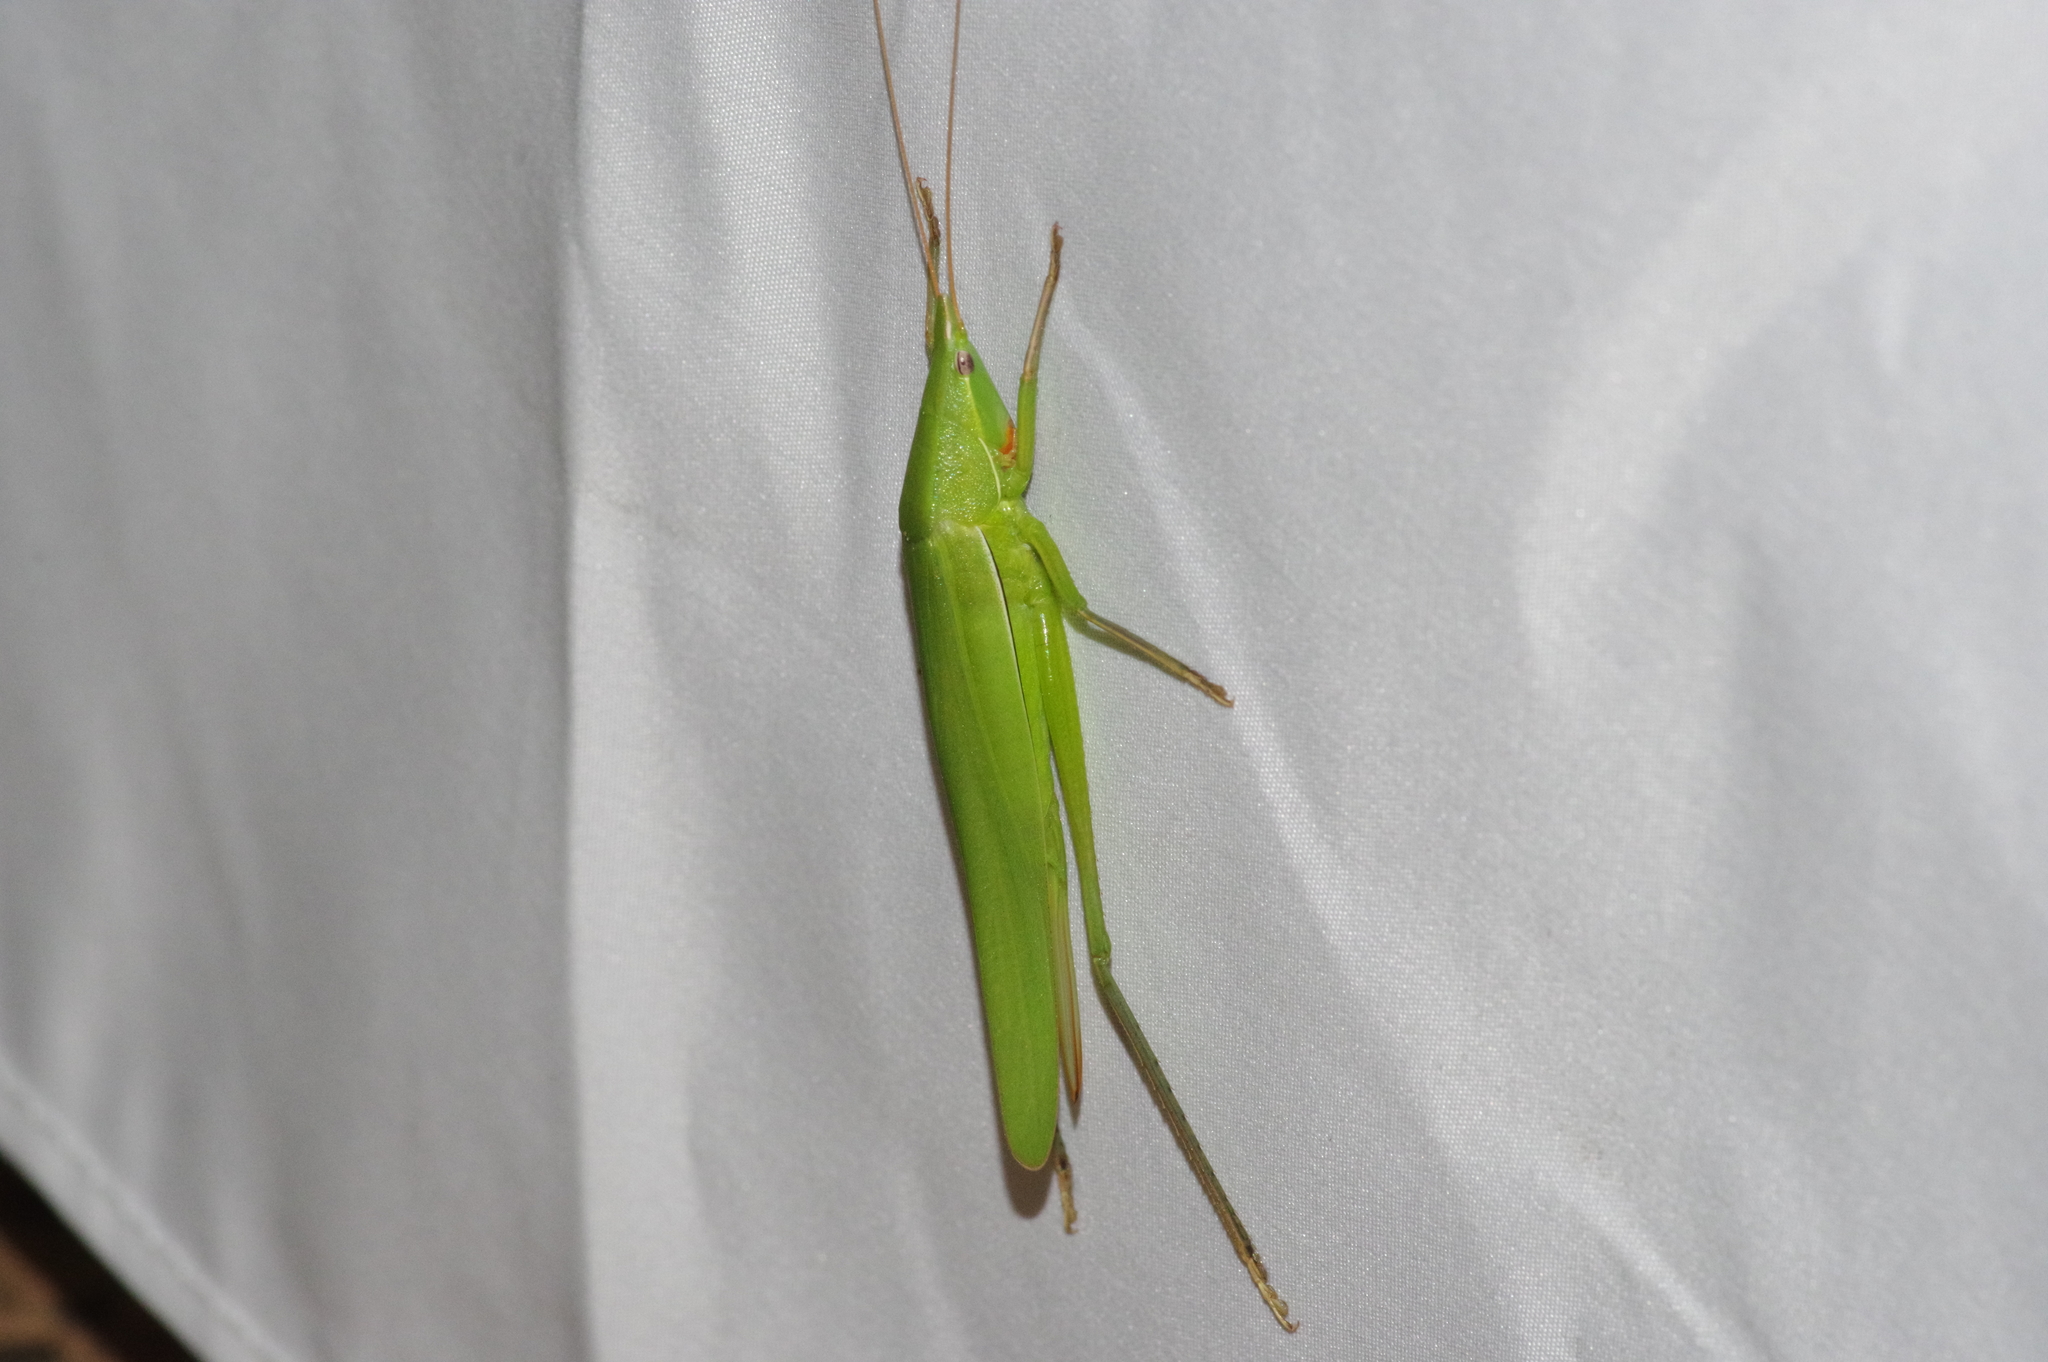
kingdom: Animalia
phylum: Arthropoda
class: Insecta
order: Orthoptera
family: Tettigoniidae
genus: Euconocephalus
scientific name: Euconocephalus varius
